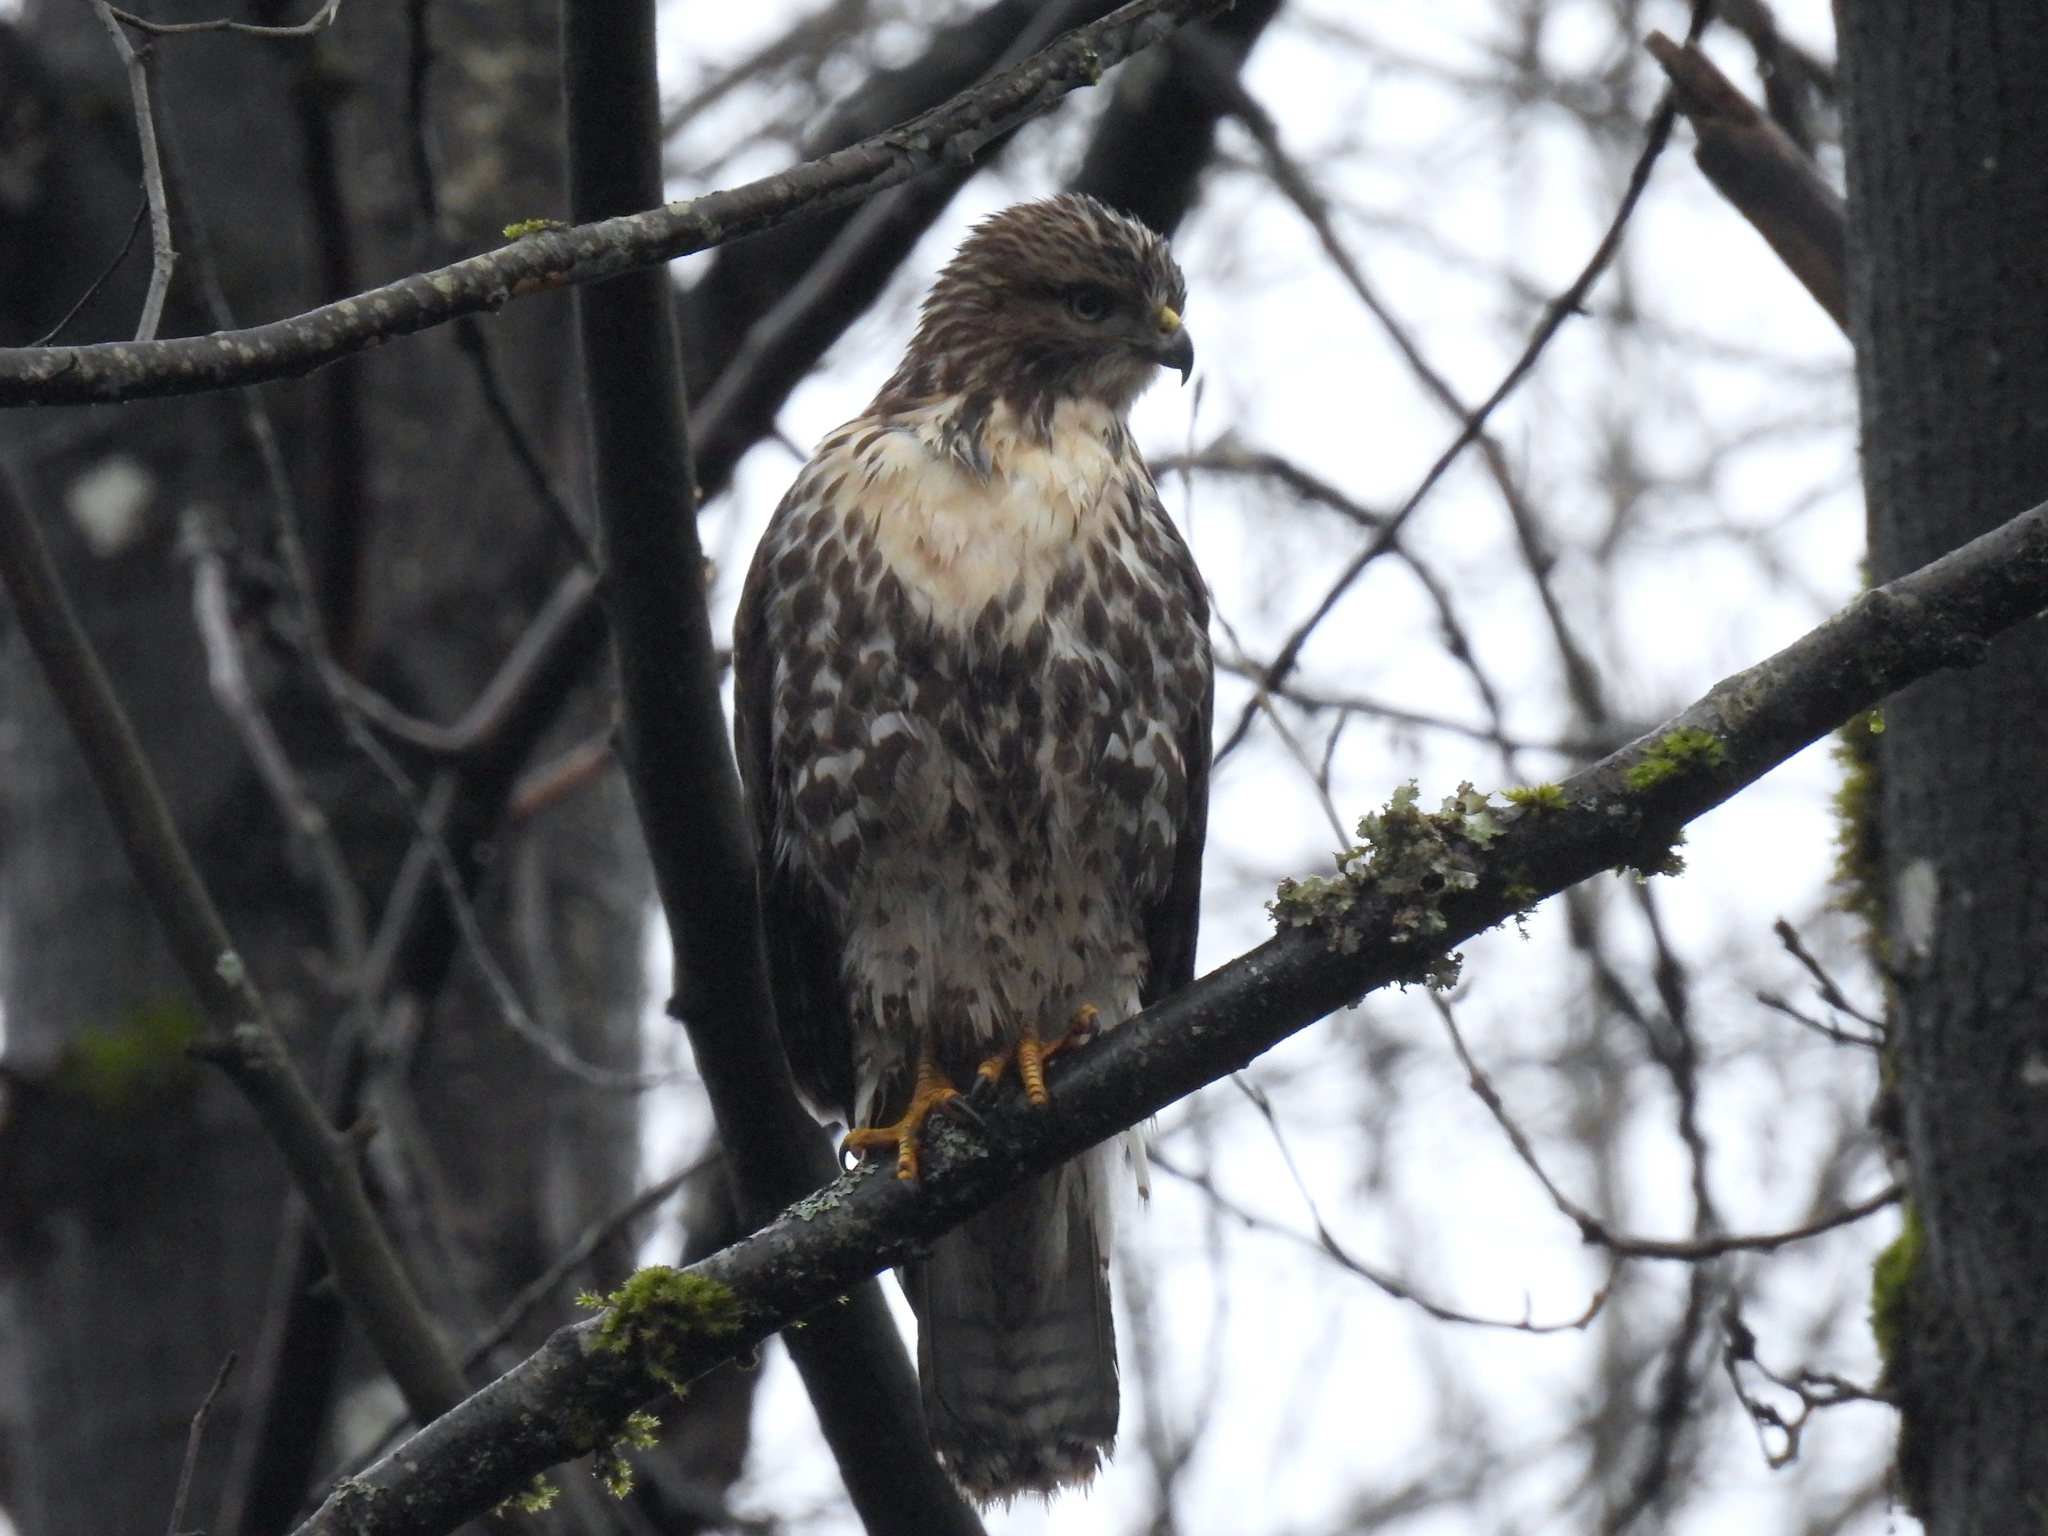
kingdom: Animalia
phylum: Chordata
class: Aves
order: Accipitriformes
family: Accipitridae
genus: Buteo
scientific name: Buteo jamaicensis
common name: Red-tailed hawk
